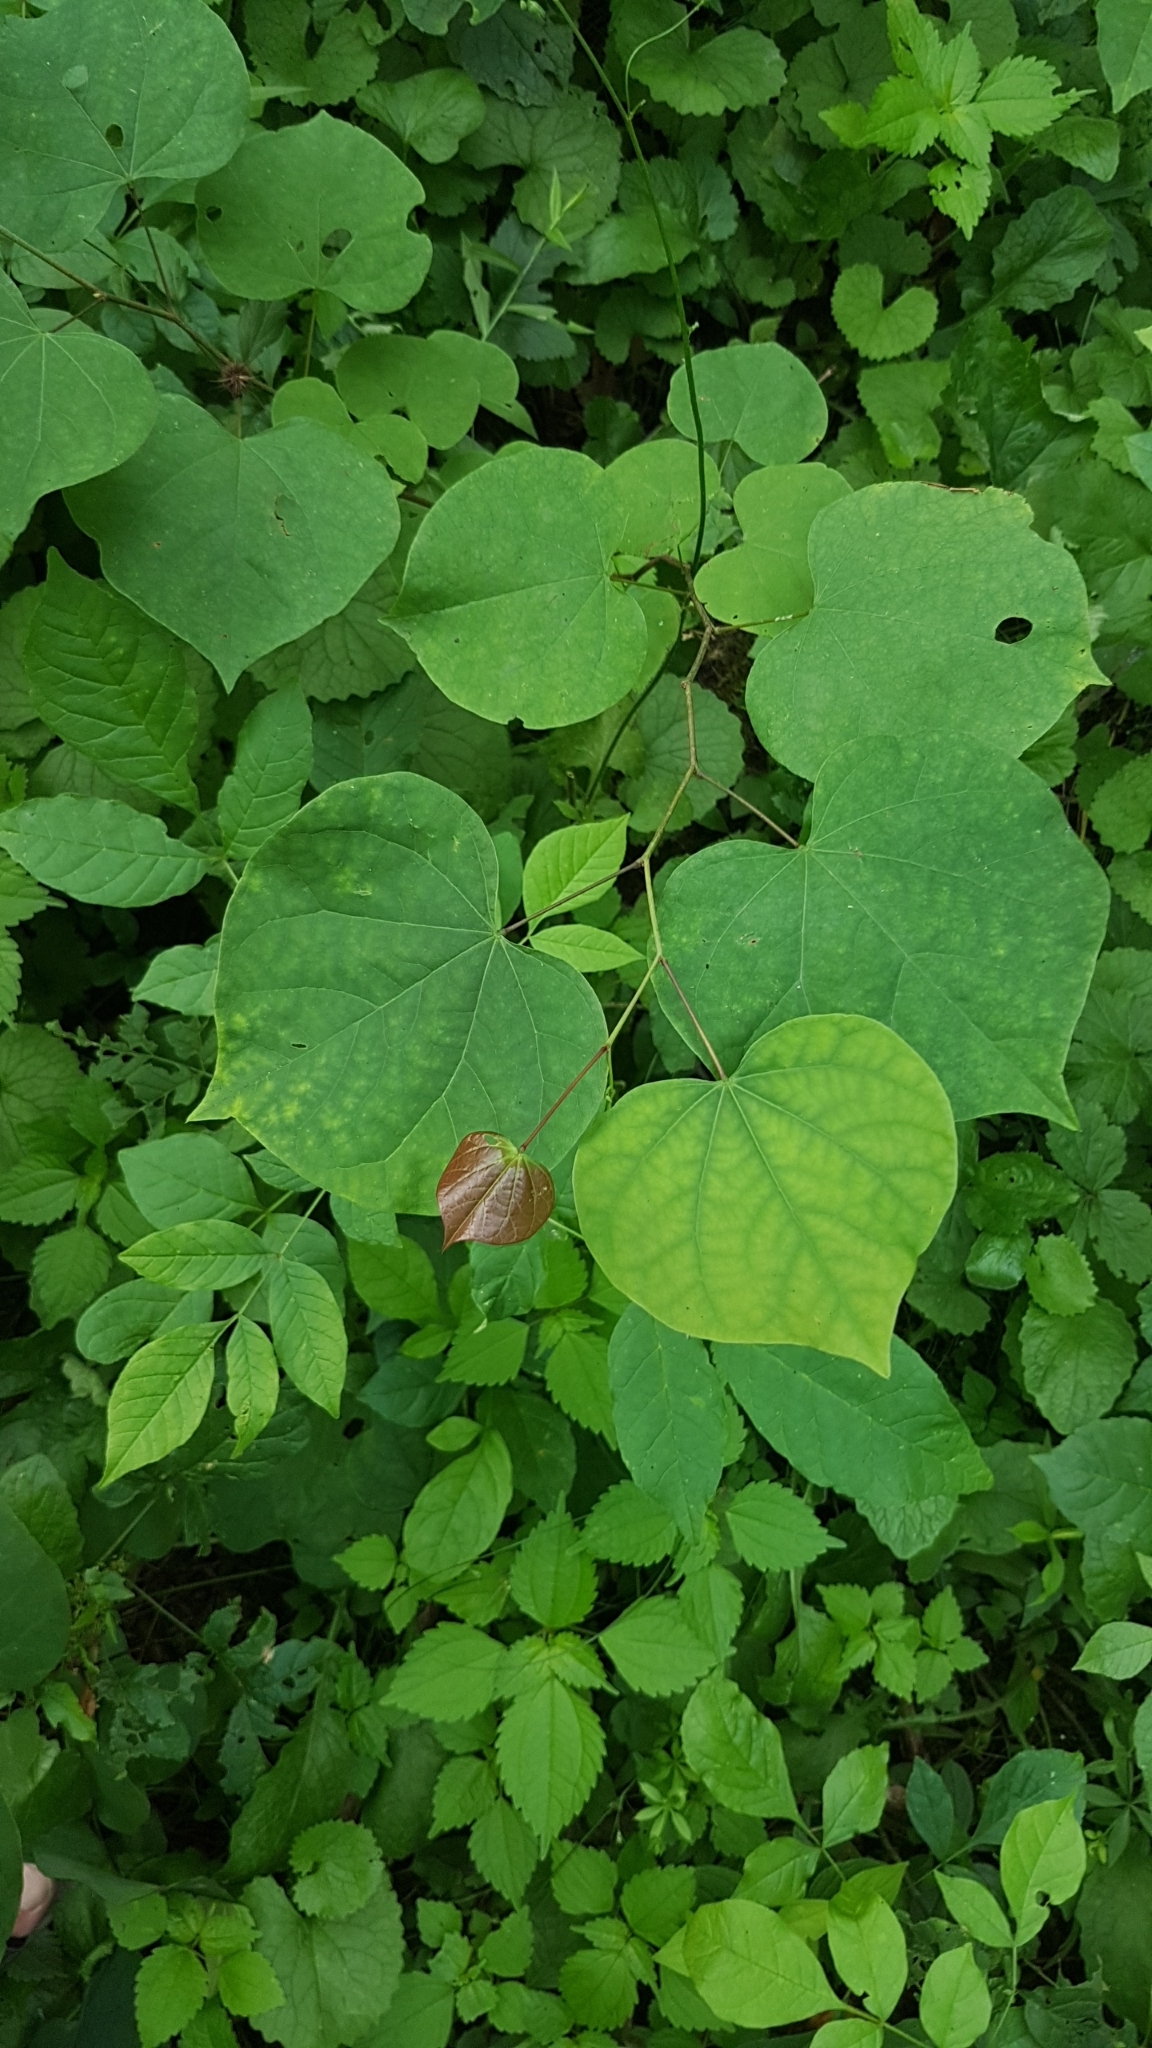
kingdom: Plantae
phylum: Tracheophyta
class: Magnoliopsida
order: Fabales
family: Fabaceae
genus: Cercis
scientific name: Cercis canadensis
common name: Eastern redbud
